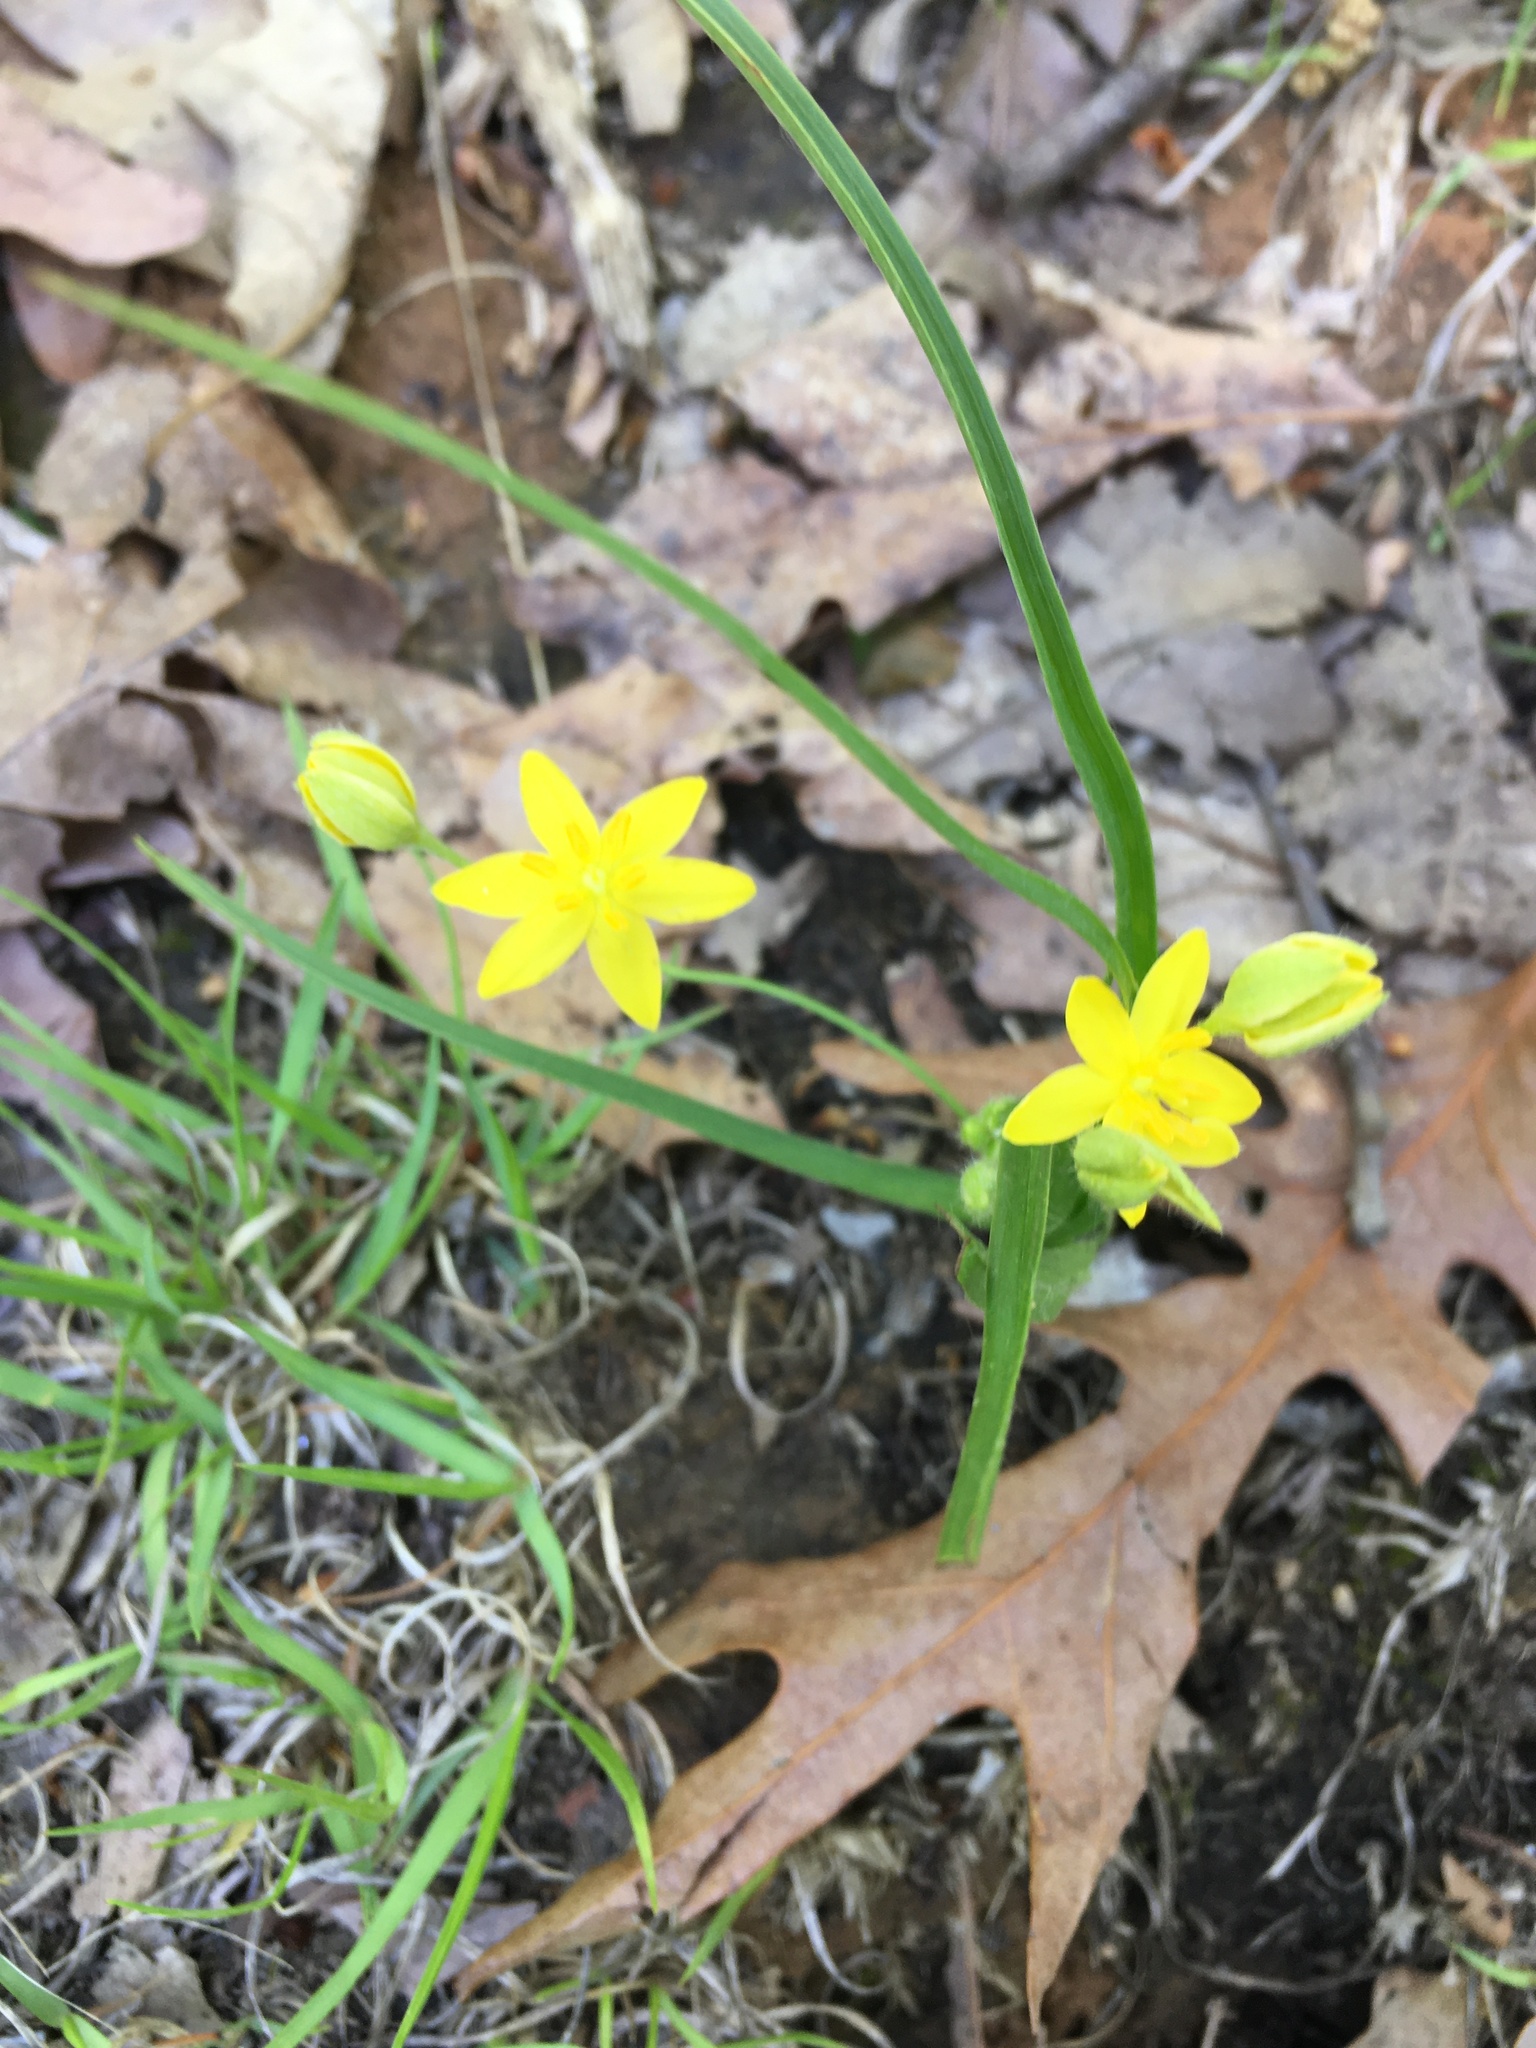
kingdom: Plantae
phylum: Tracheophyta
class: Liliopsida
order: Asparagales
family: Hypoxidaceae
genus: Hypoxis
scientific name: Hypoxis hirsuta
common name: Common goldstar
